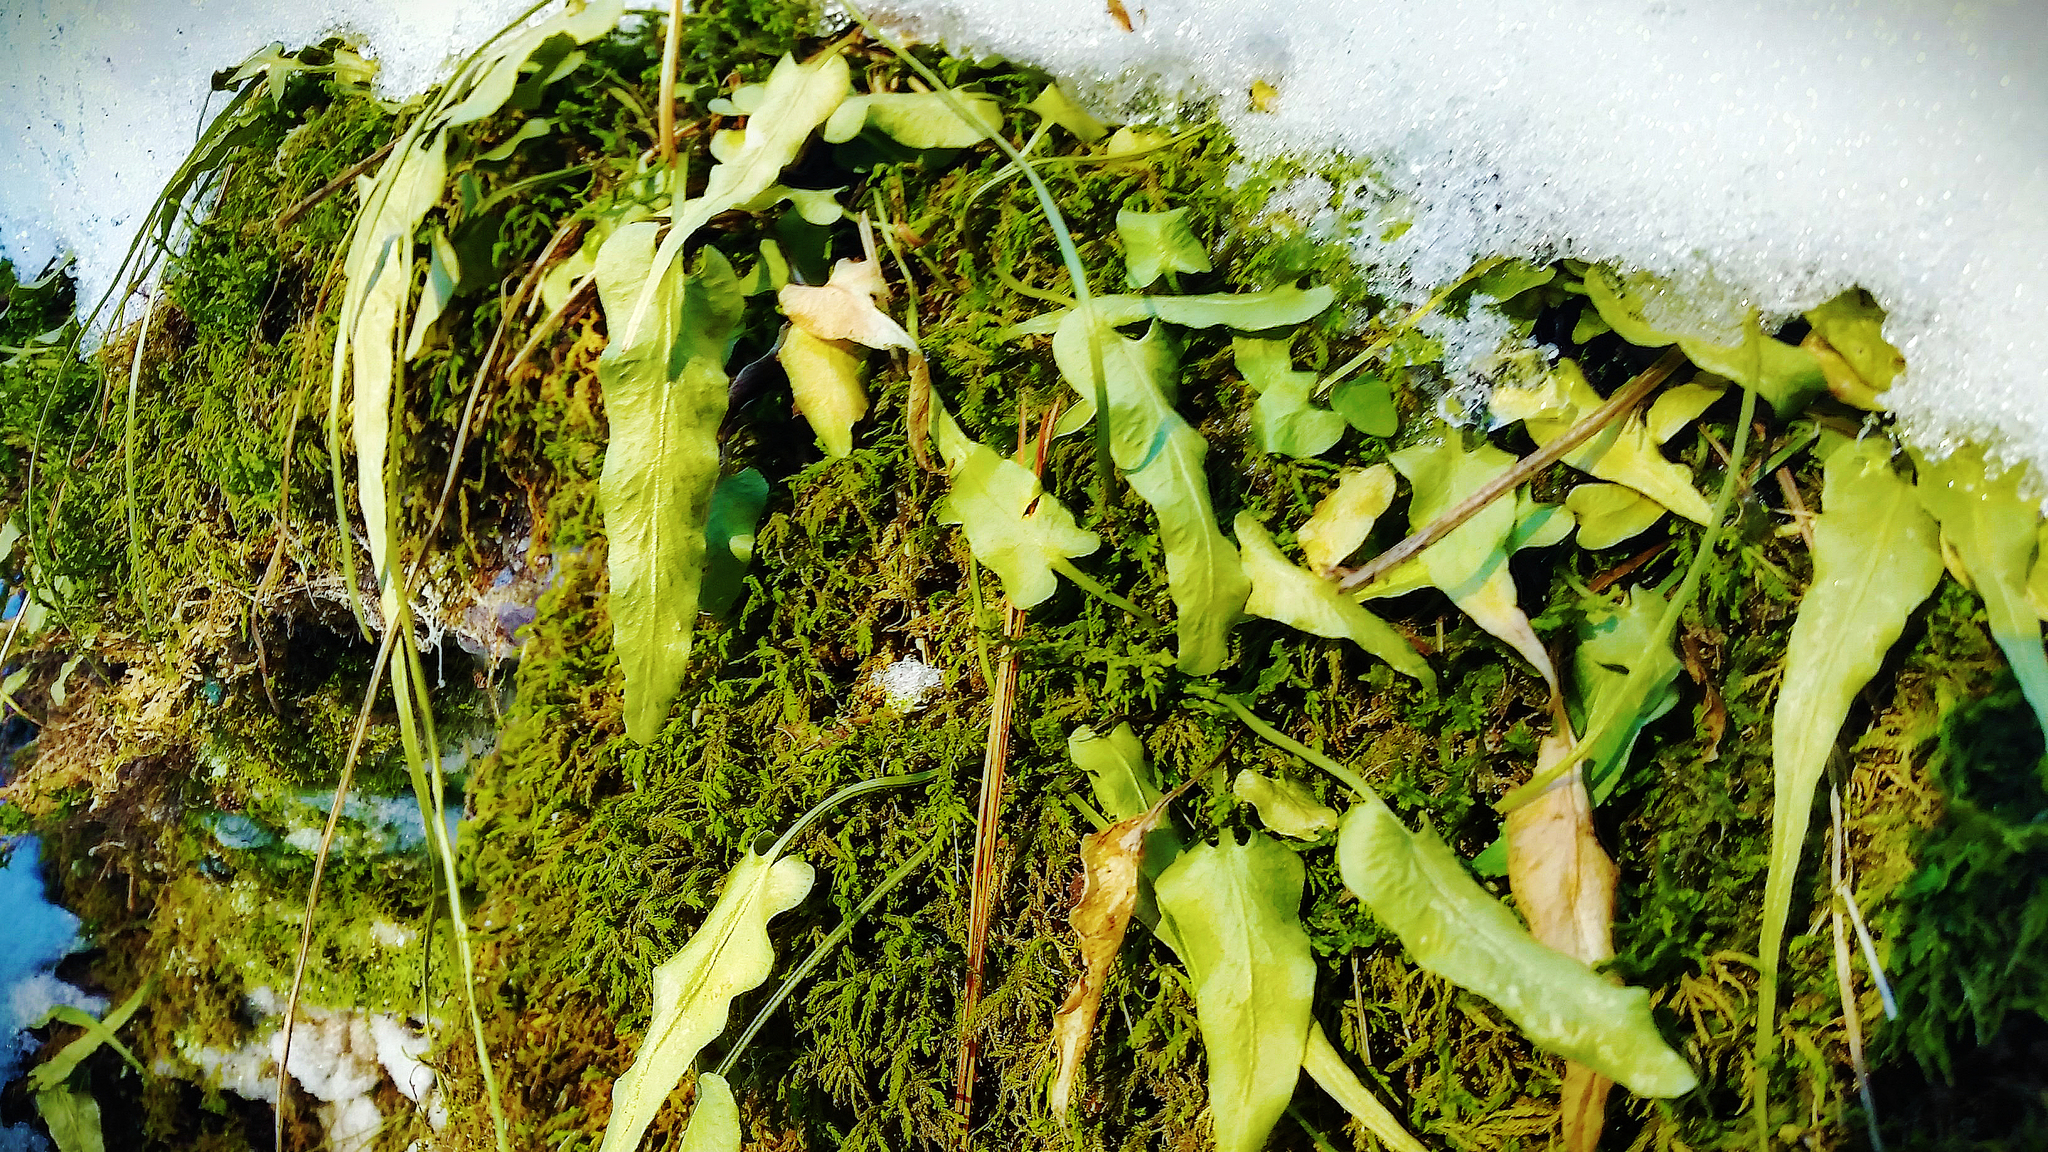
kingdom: Plantae
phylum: Tracheophyta
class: Polypodiopsida
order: Polypodiales
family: Aspleniaceae
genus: Asplenium
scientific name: Asplenium rhizophyllum
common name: Walking fern
